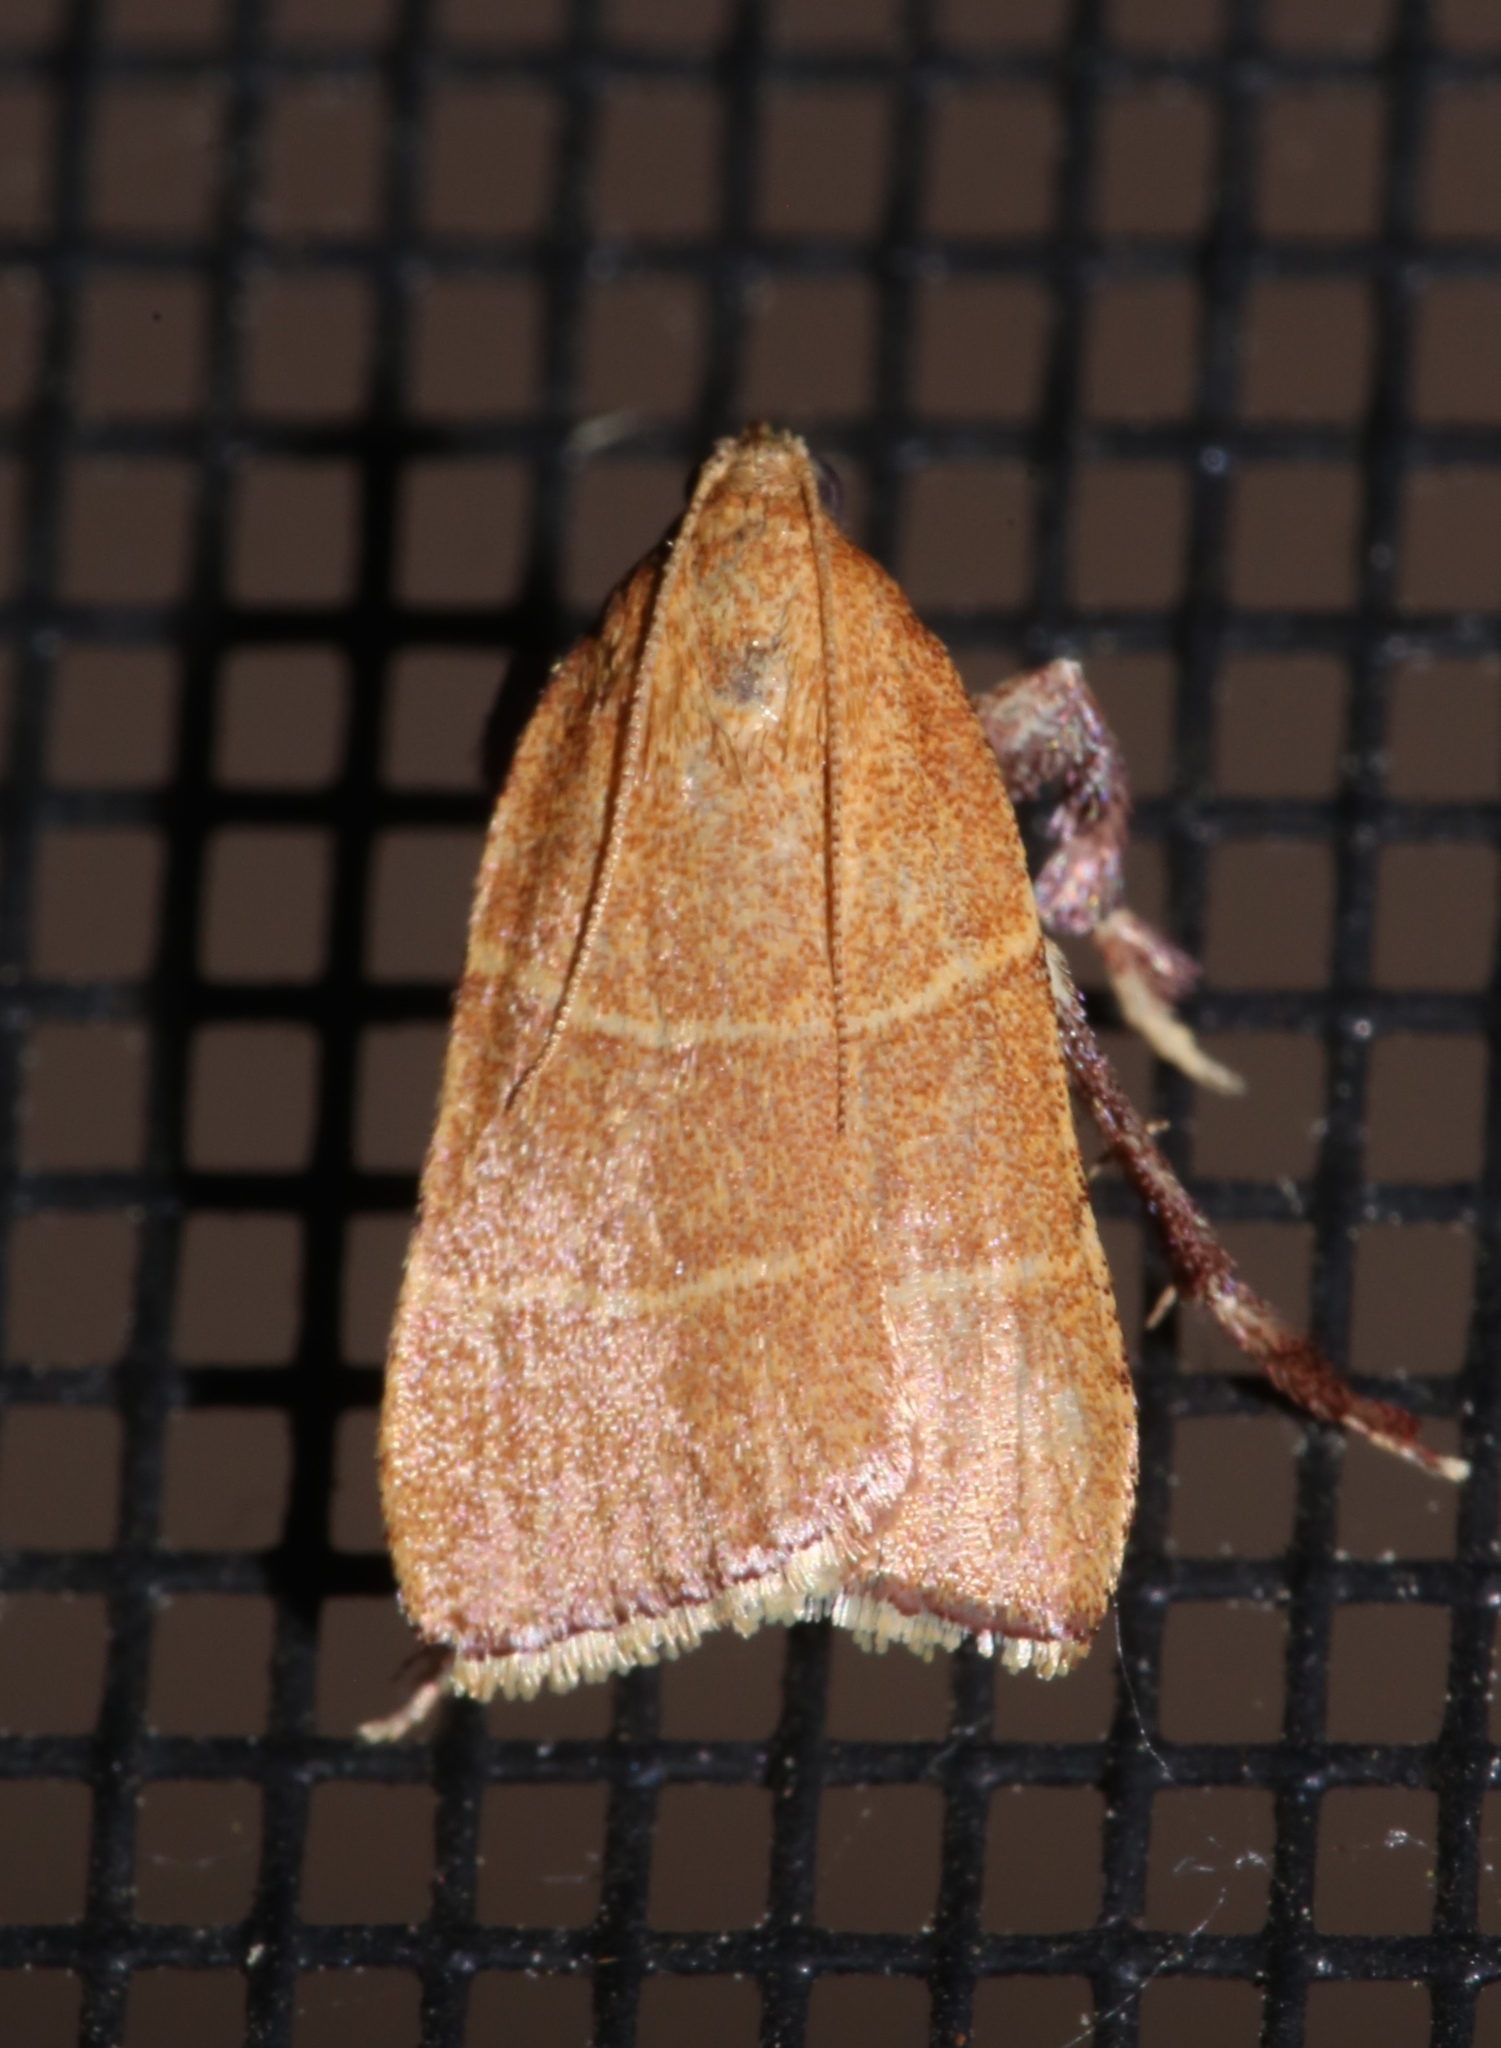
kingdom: Animalia
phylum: Arthropoda
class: Insecta
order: Lepidoptera
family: Pyralidae
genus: Parachma
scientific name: Parachma ochracealis
